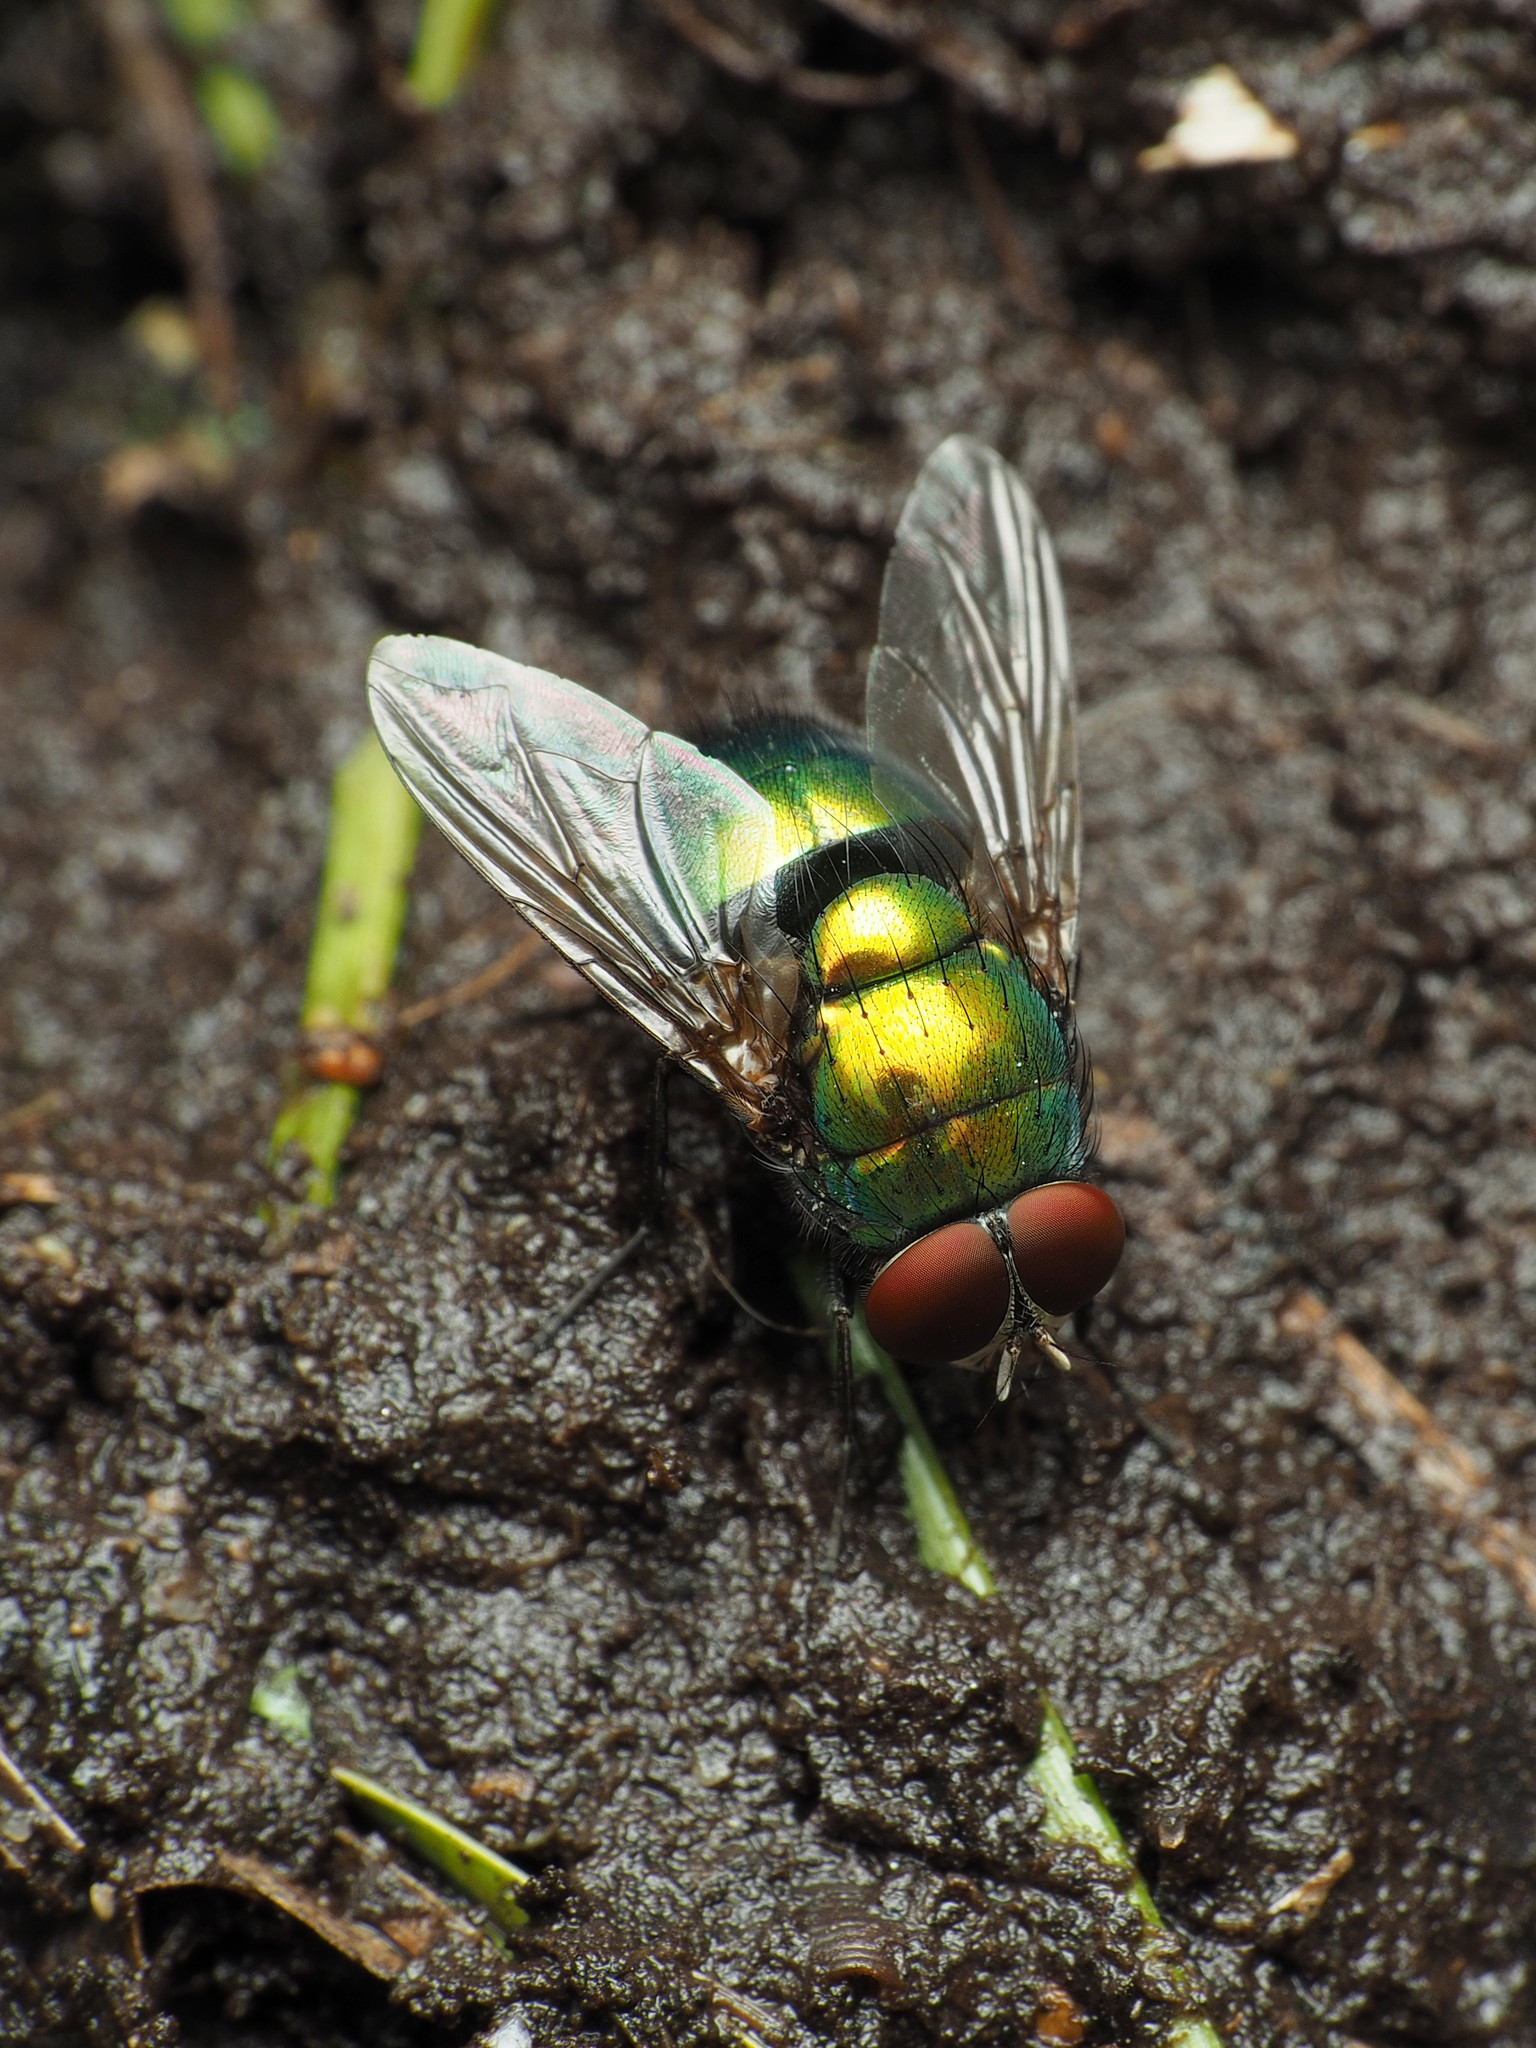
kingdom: Animalia
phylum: Arthropoda
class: Insecta
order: Diptera
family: Calliphoridae
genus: Lucilia
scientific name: Lucilia illustris
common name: Illustrious greenbottle
